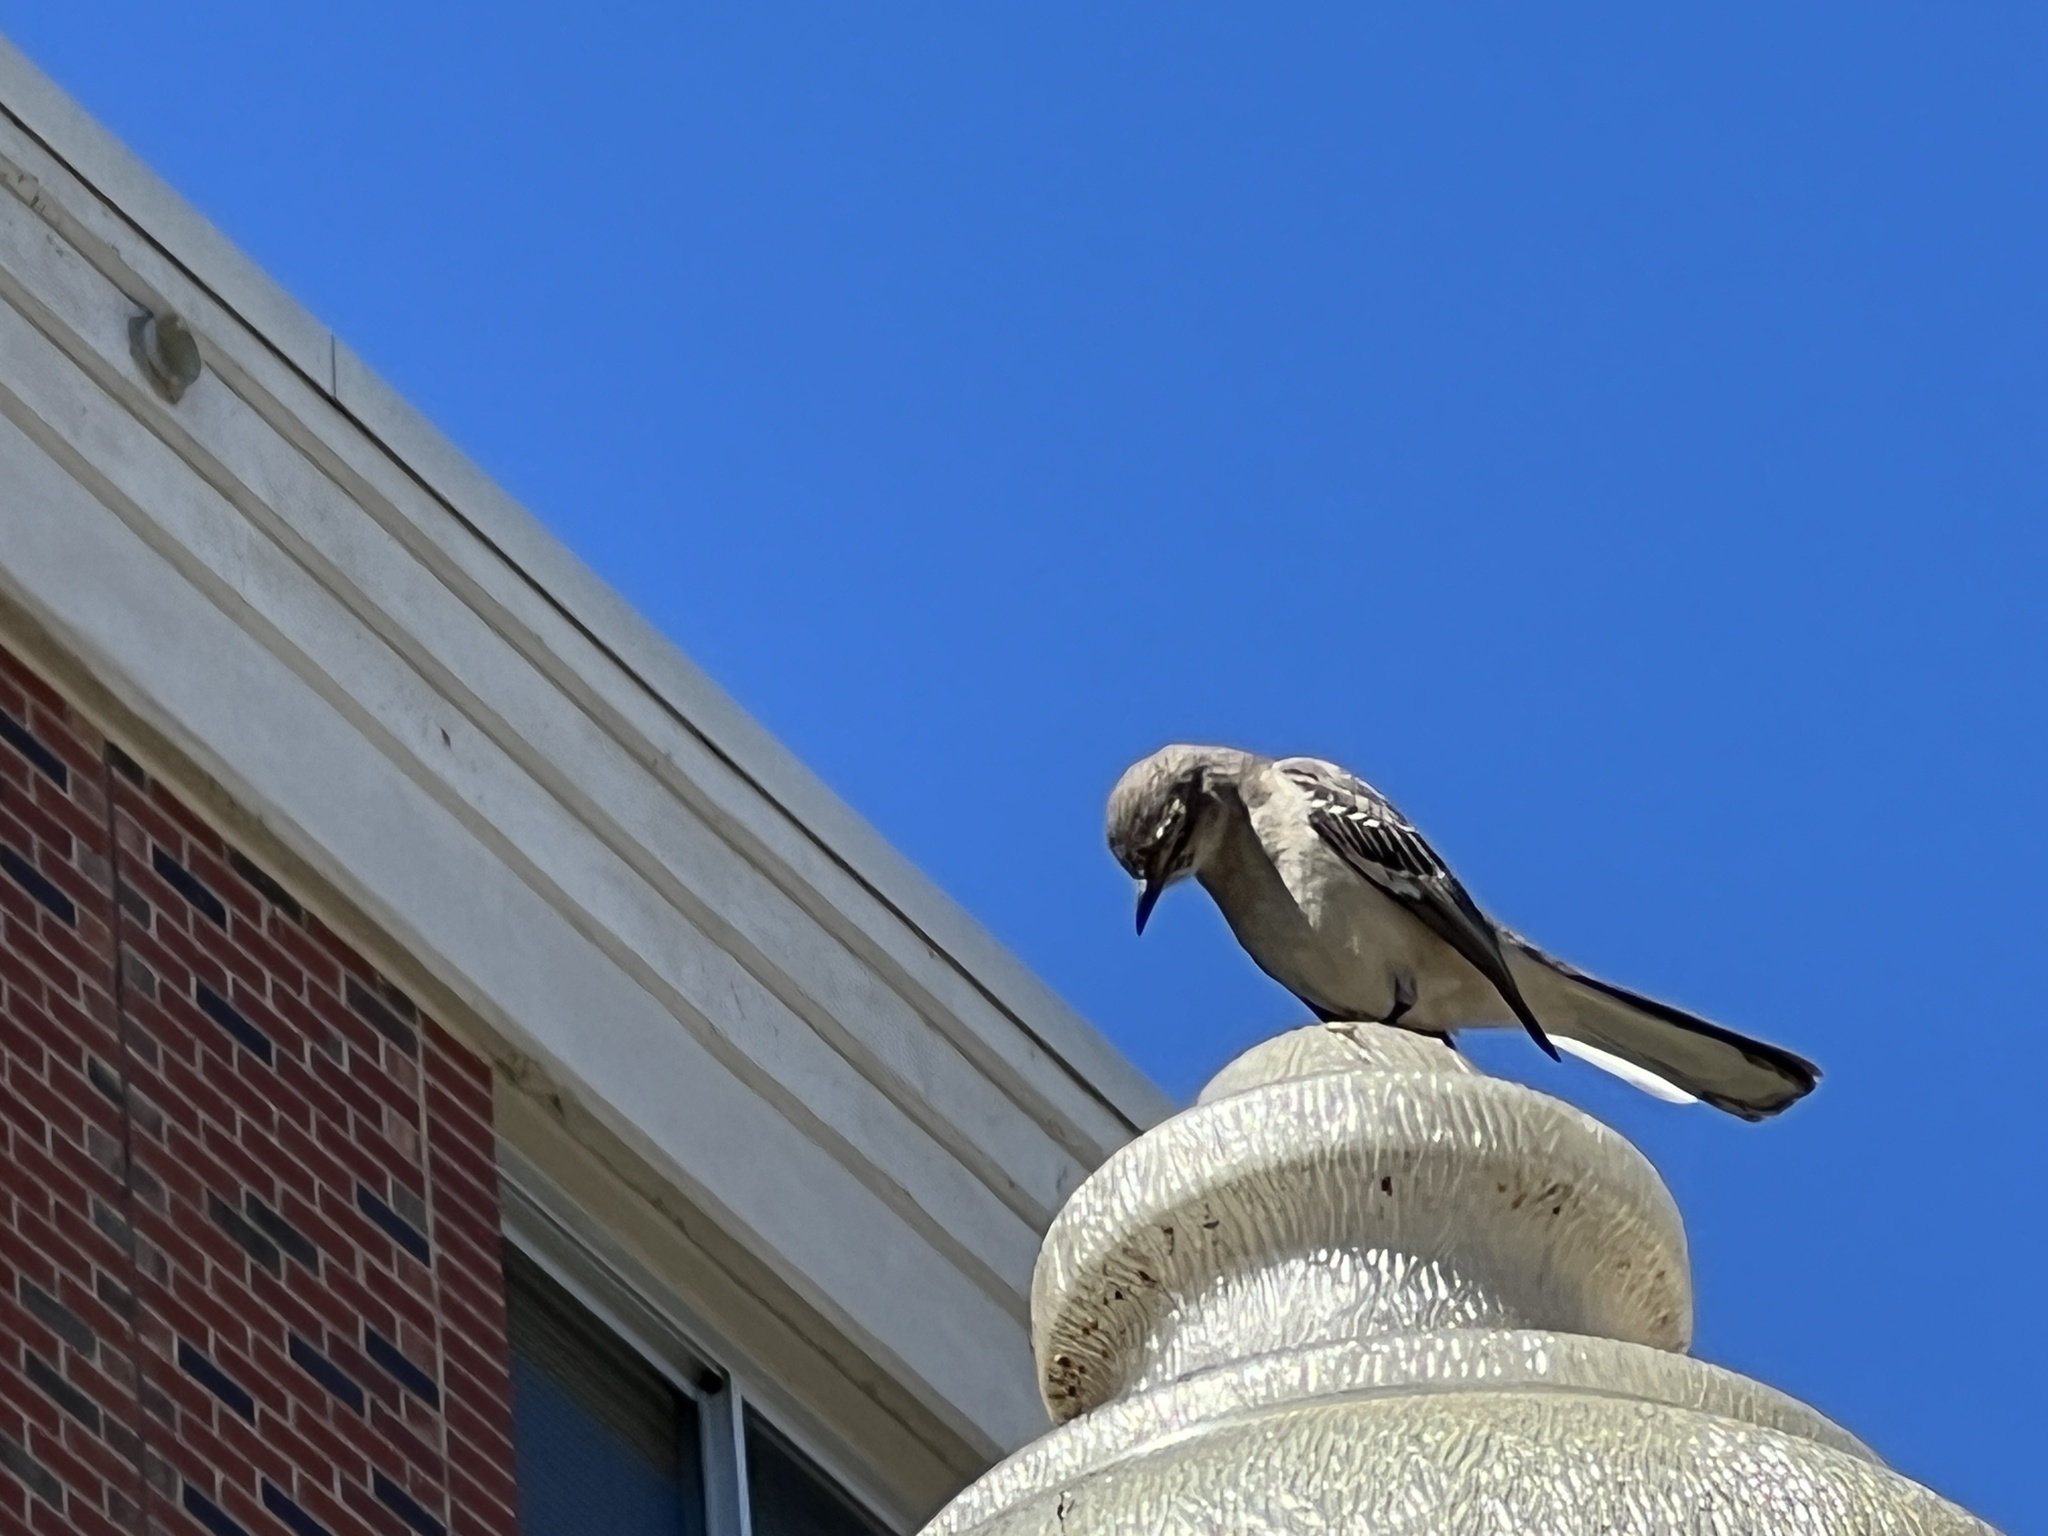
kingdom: Animalia
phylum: Chordata
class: Aves
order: Passeriformes
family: Mimidae
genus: Mimus
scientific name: Mimus polyglottos
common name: Northern mockingbird
